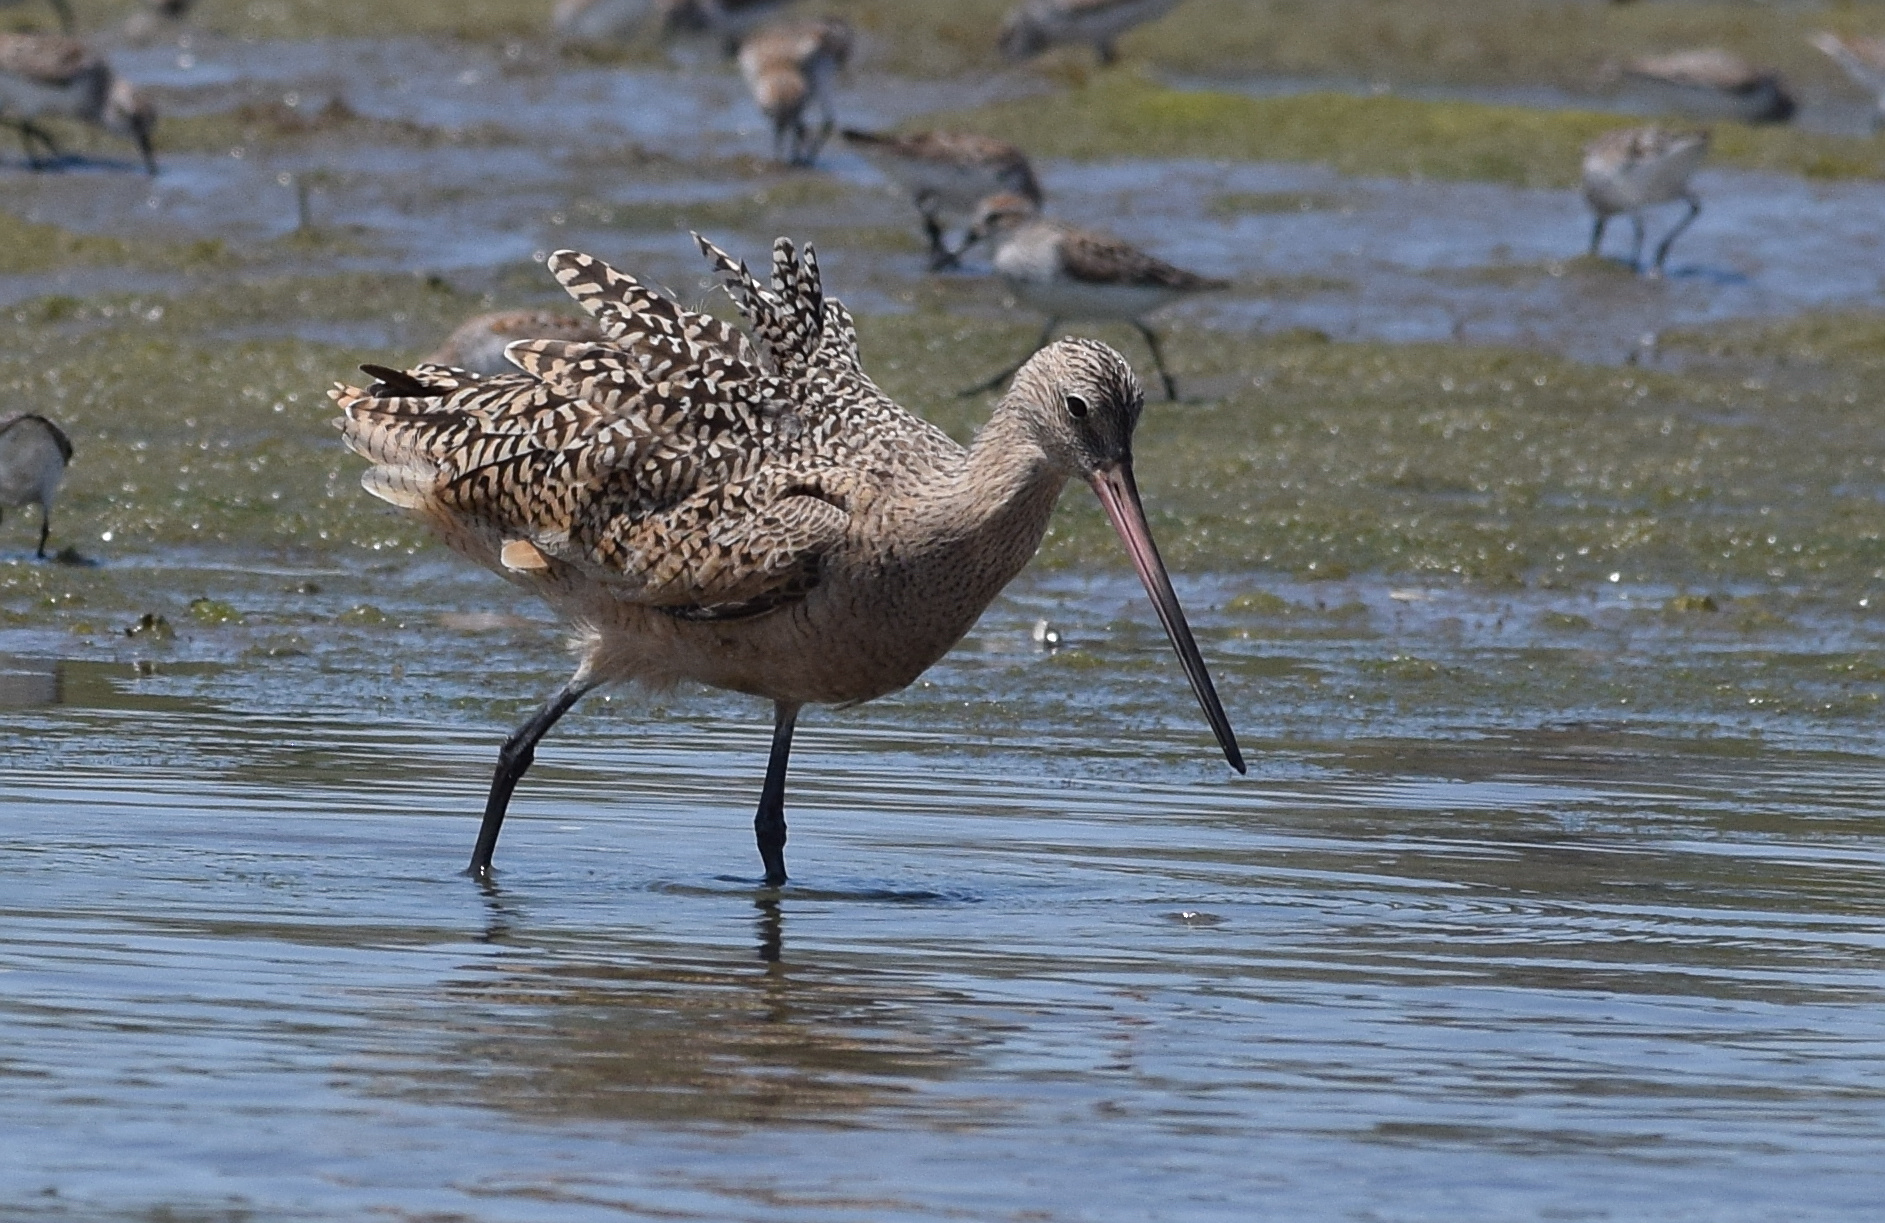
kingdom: Animalia
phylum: Chordata
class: Aves
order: Charadriiformes
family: Scolopacidae
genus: Limosa
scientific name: Limosa fedoa
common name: Marbled godwit
